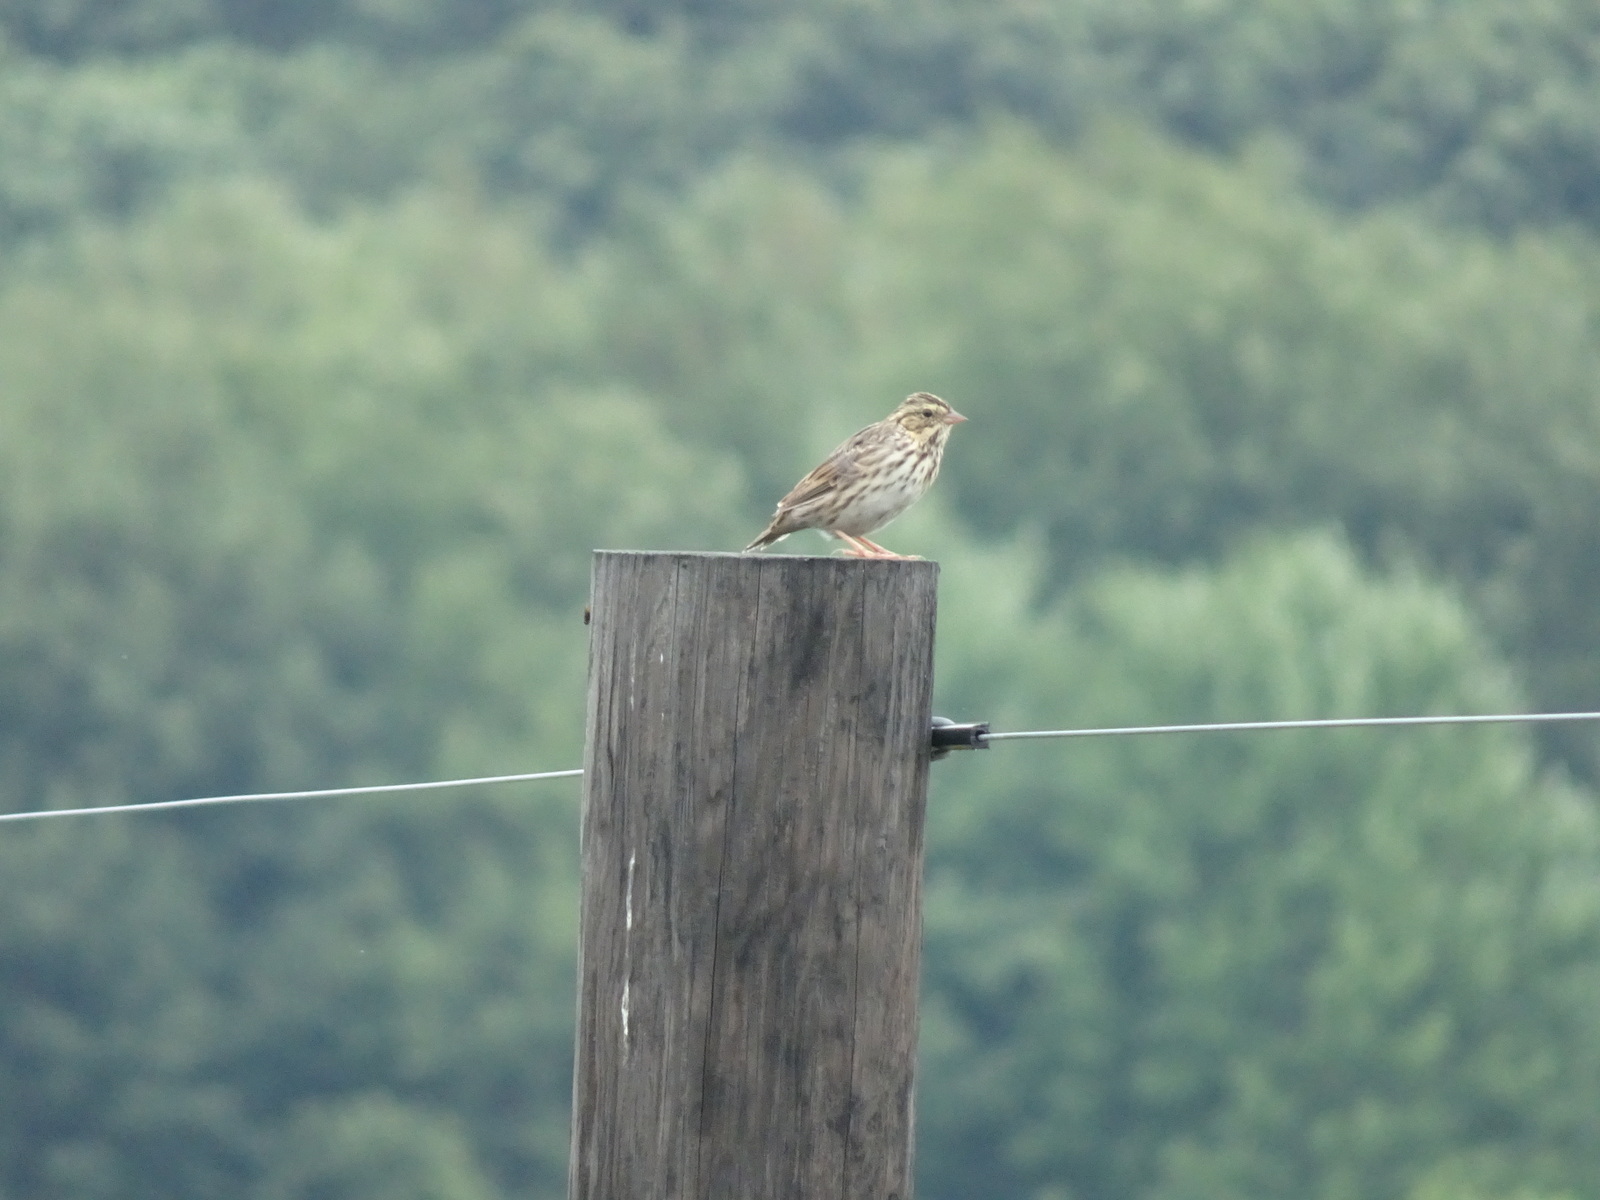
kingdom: Animalia
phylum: Chordata
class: Aves
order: Passeriformes
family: Passerellidae
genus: Passerculus
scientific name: Passerculus sandwichensis
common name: Savannah sparrow
